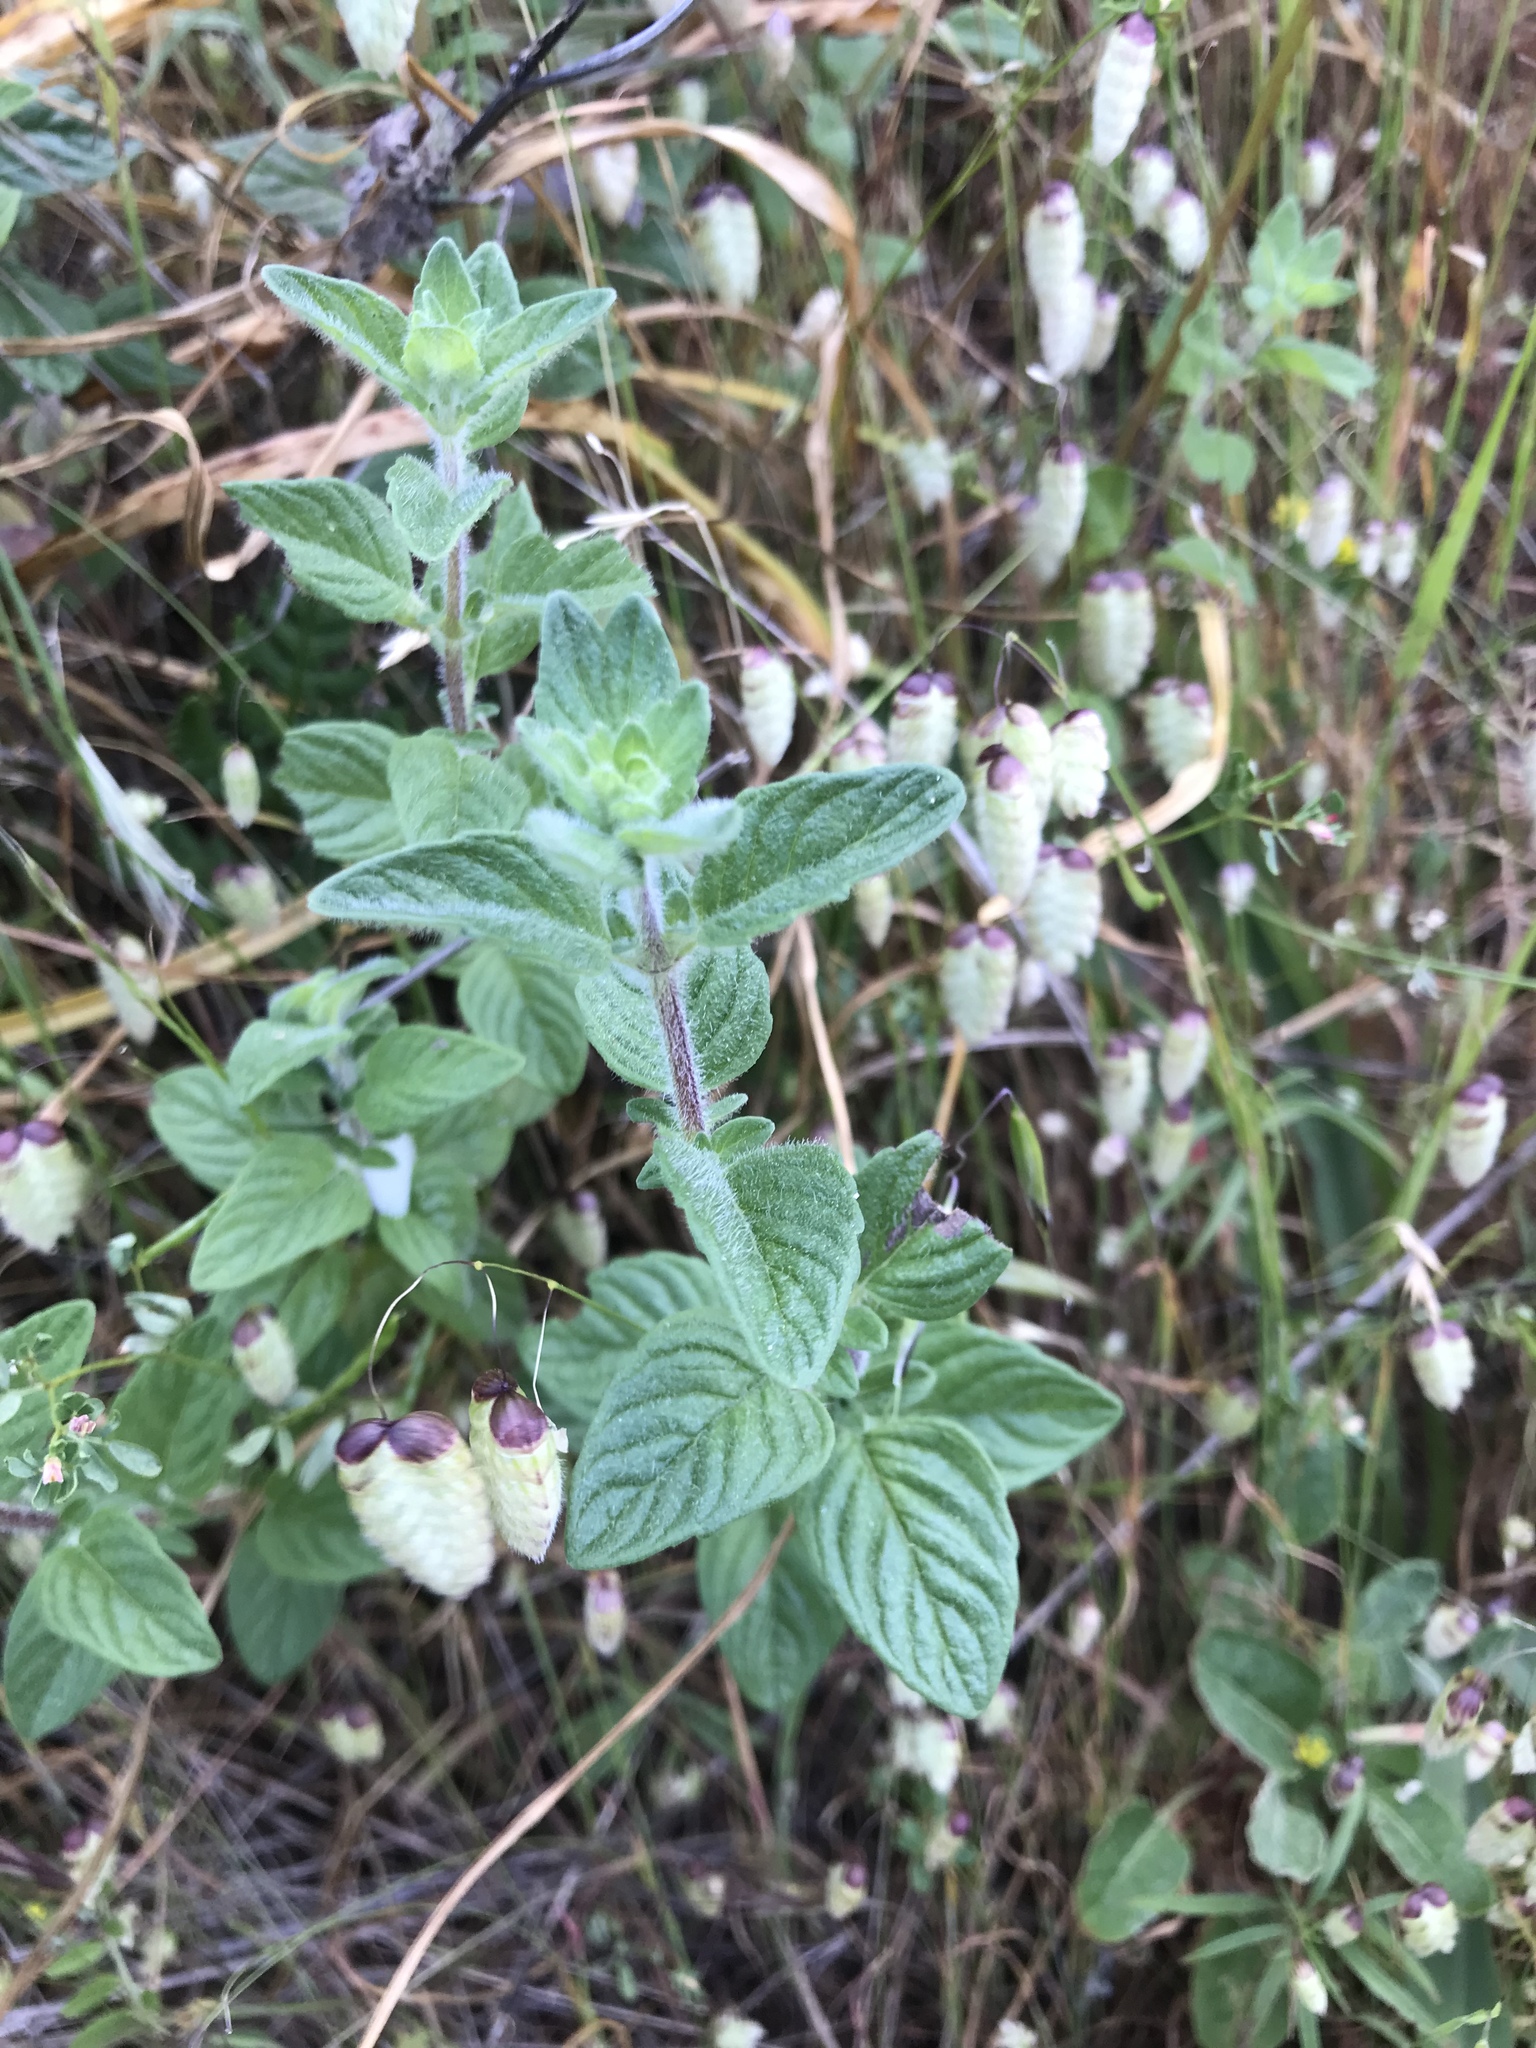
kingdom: Plantae
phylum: Tracheophyta
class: Magnoliopsida
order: Lamiales
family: Lamiaceae
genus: Monardella
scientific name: Monardella odoratissima
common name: Pacific monardella
